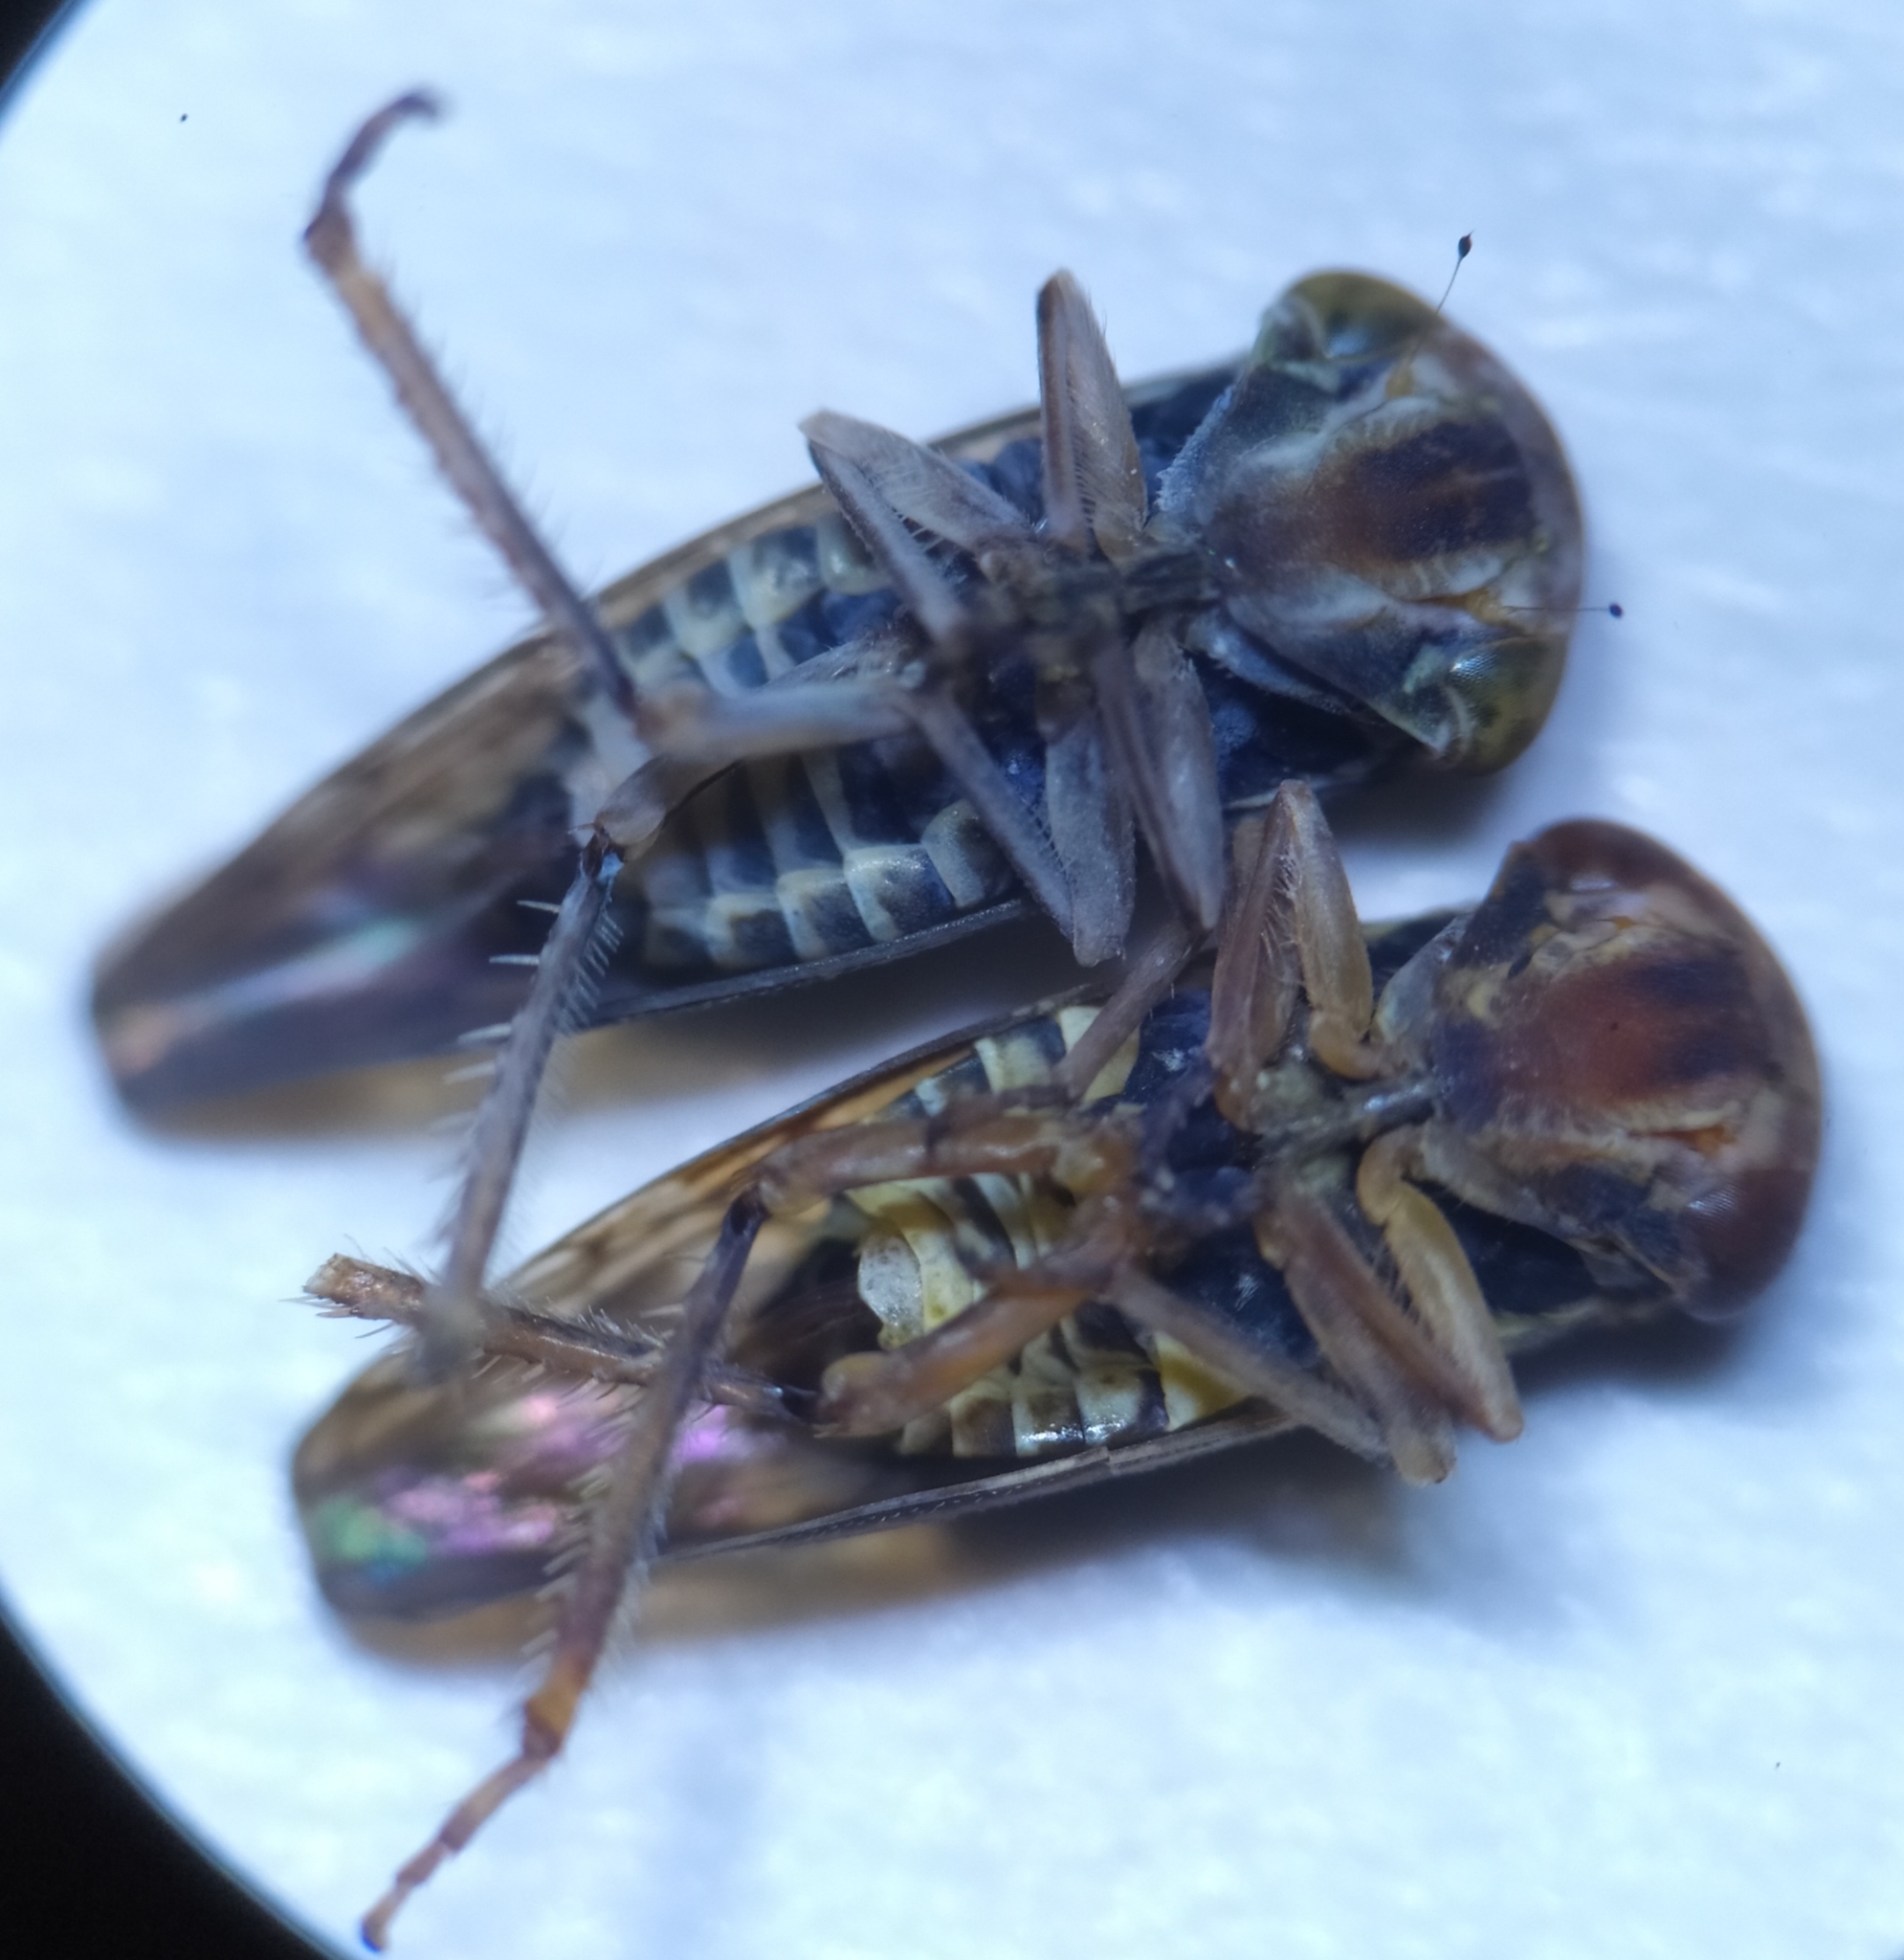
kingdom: Animalia
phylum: Arthropoda
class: Insecta
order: Hemiptera
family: Cicadellidae
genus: Acericerus
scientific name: Acericerus ribauti
